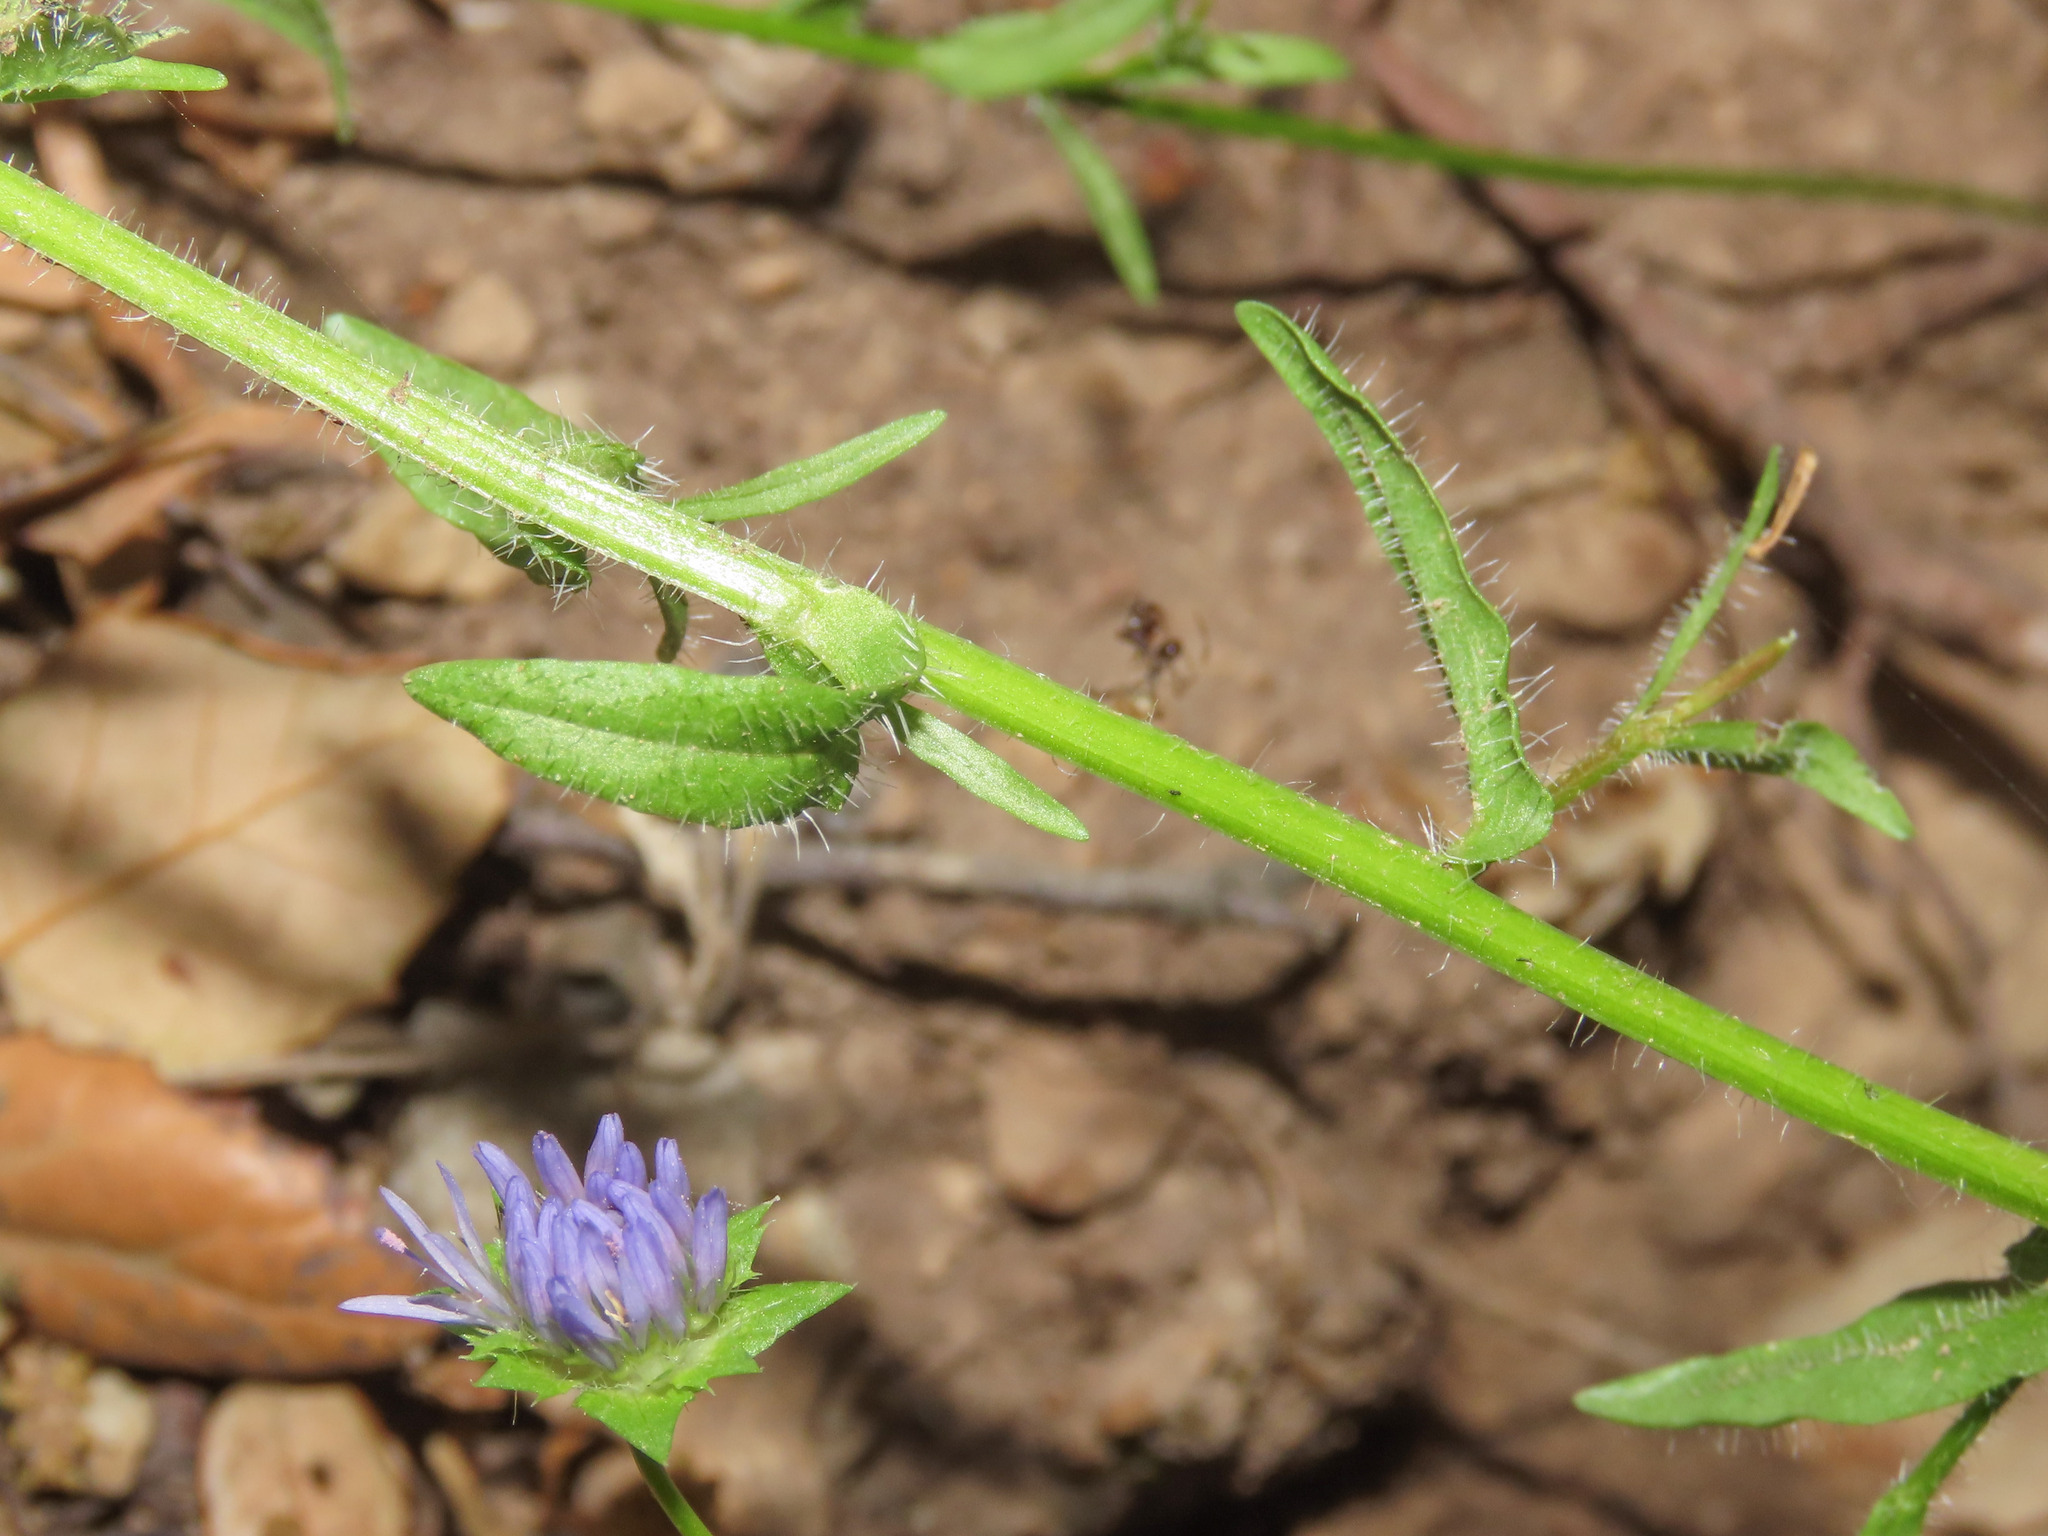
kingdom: Plantae
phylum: Tracheophyta
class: Magnoliopsida
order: Asterales
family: Campanulaceae
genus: Jasione
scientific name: Jasione montana
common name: Sheep's-bit
